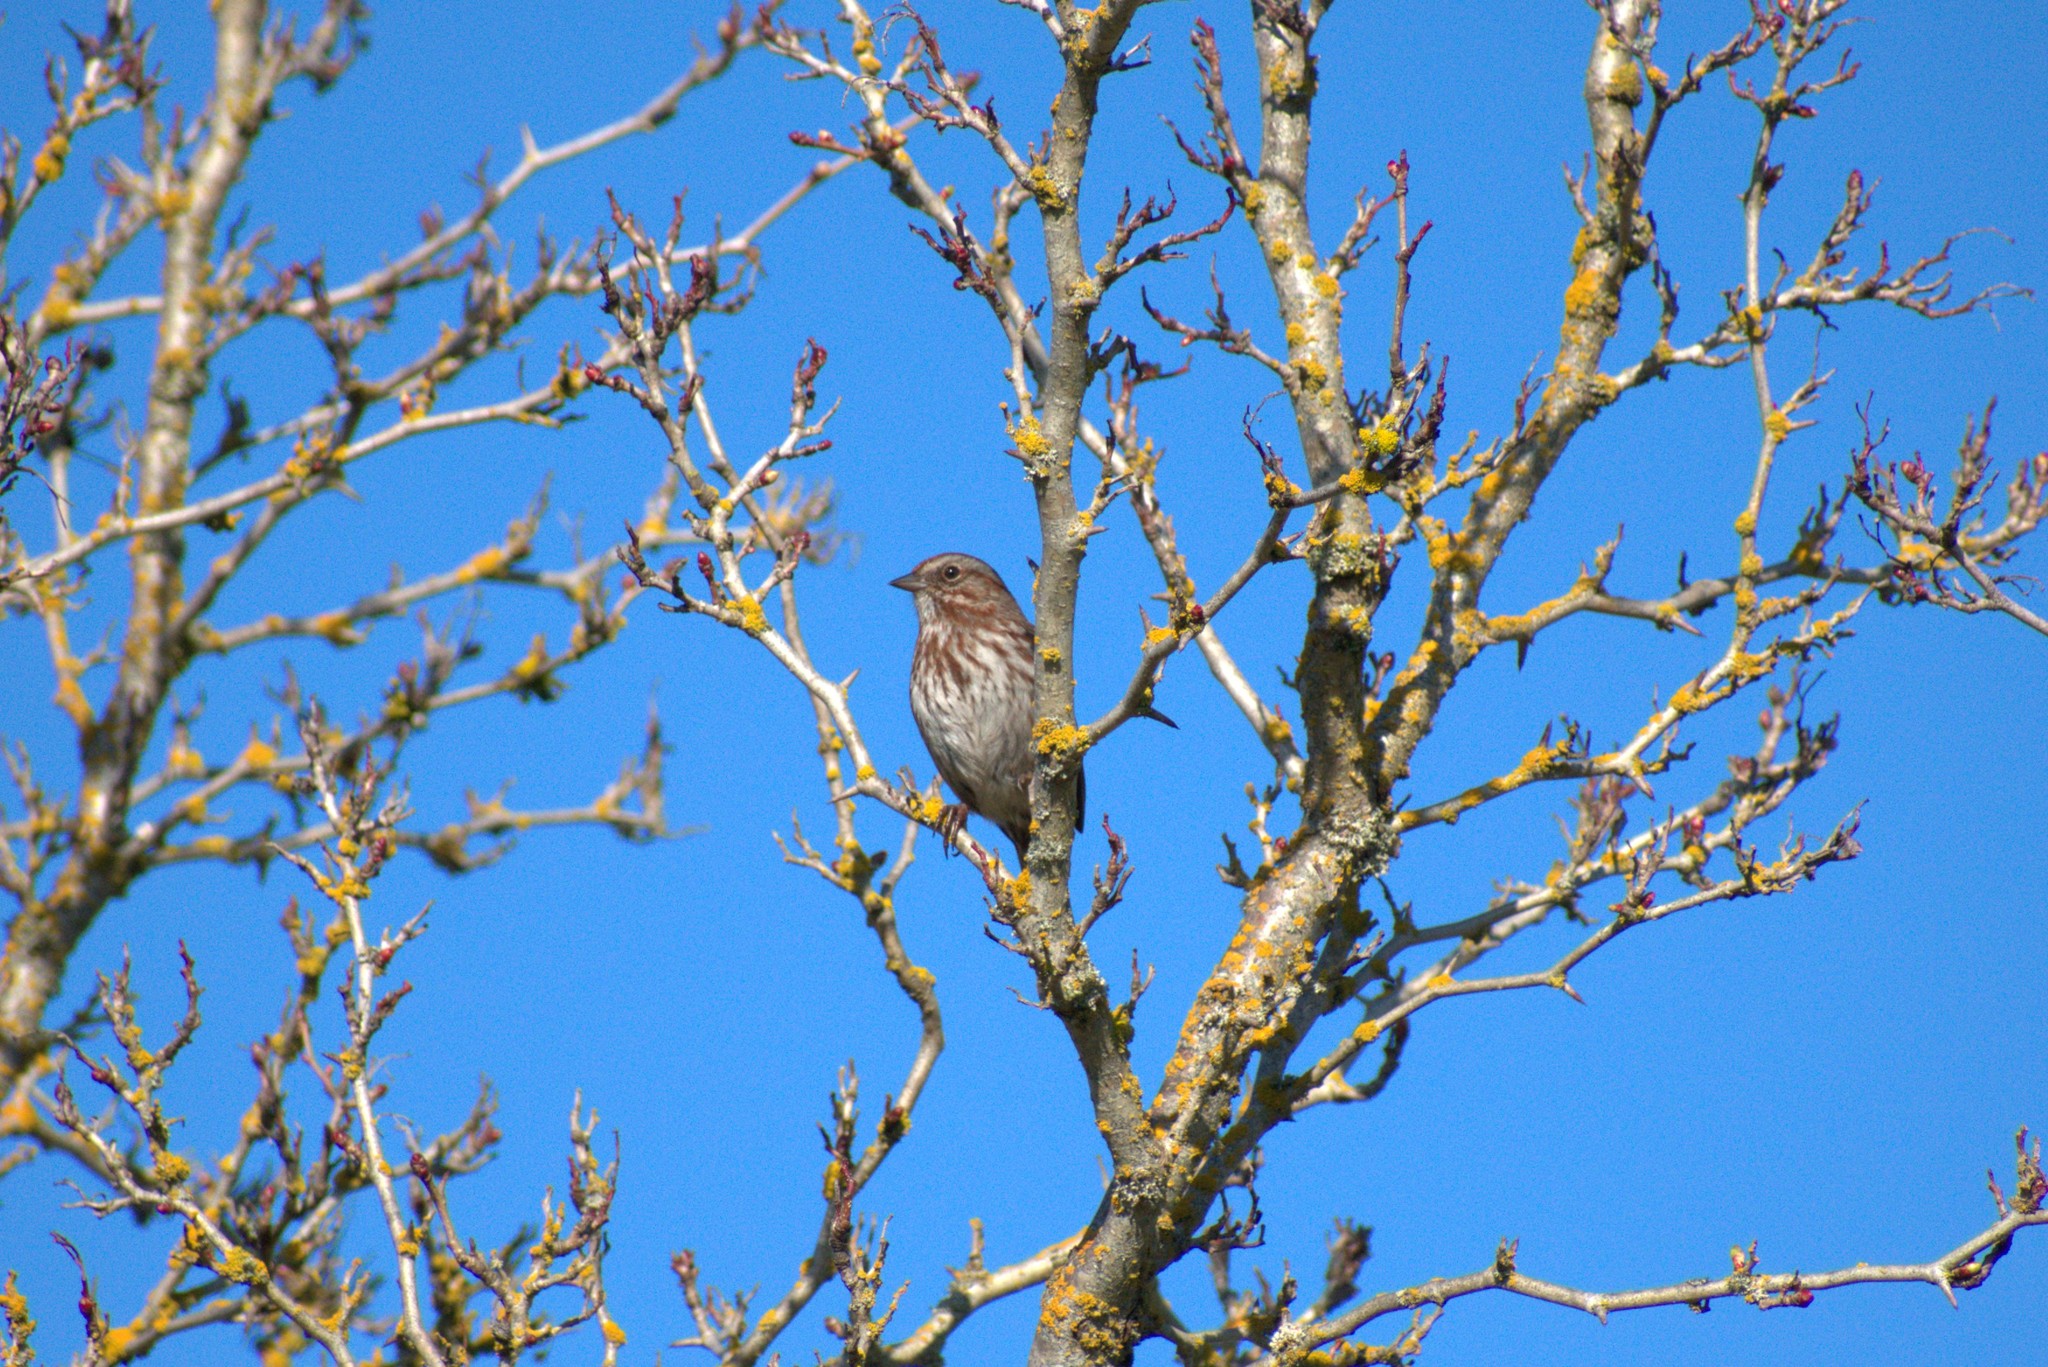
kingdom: Animalia
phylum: Chordata
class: Aves
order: Passeriformes
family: Passerellidae
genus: Melospiza
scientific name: Melospiza melodia
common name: Song sparrow
